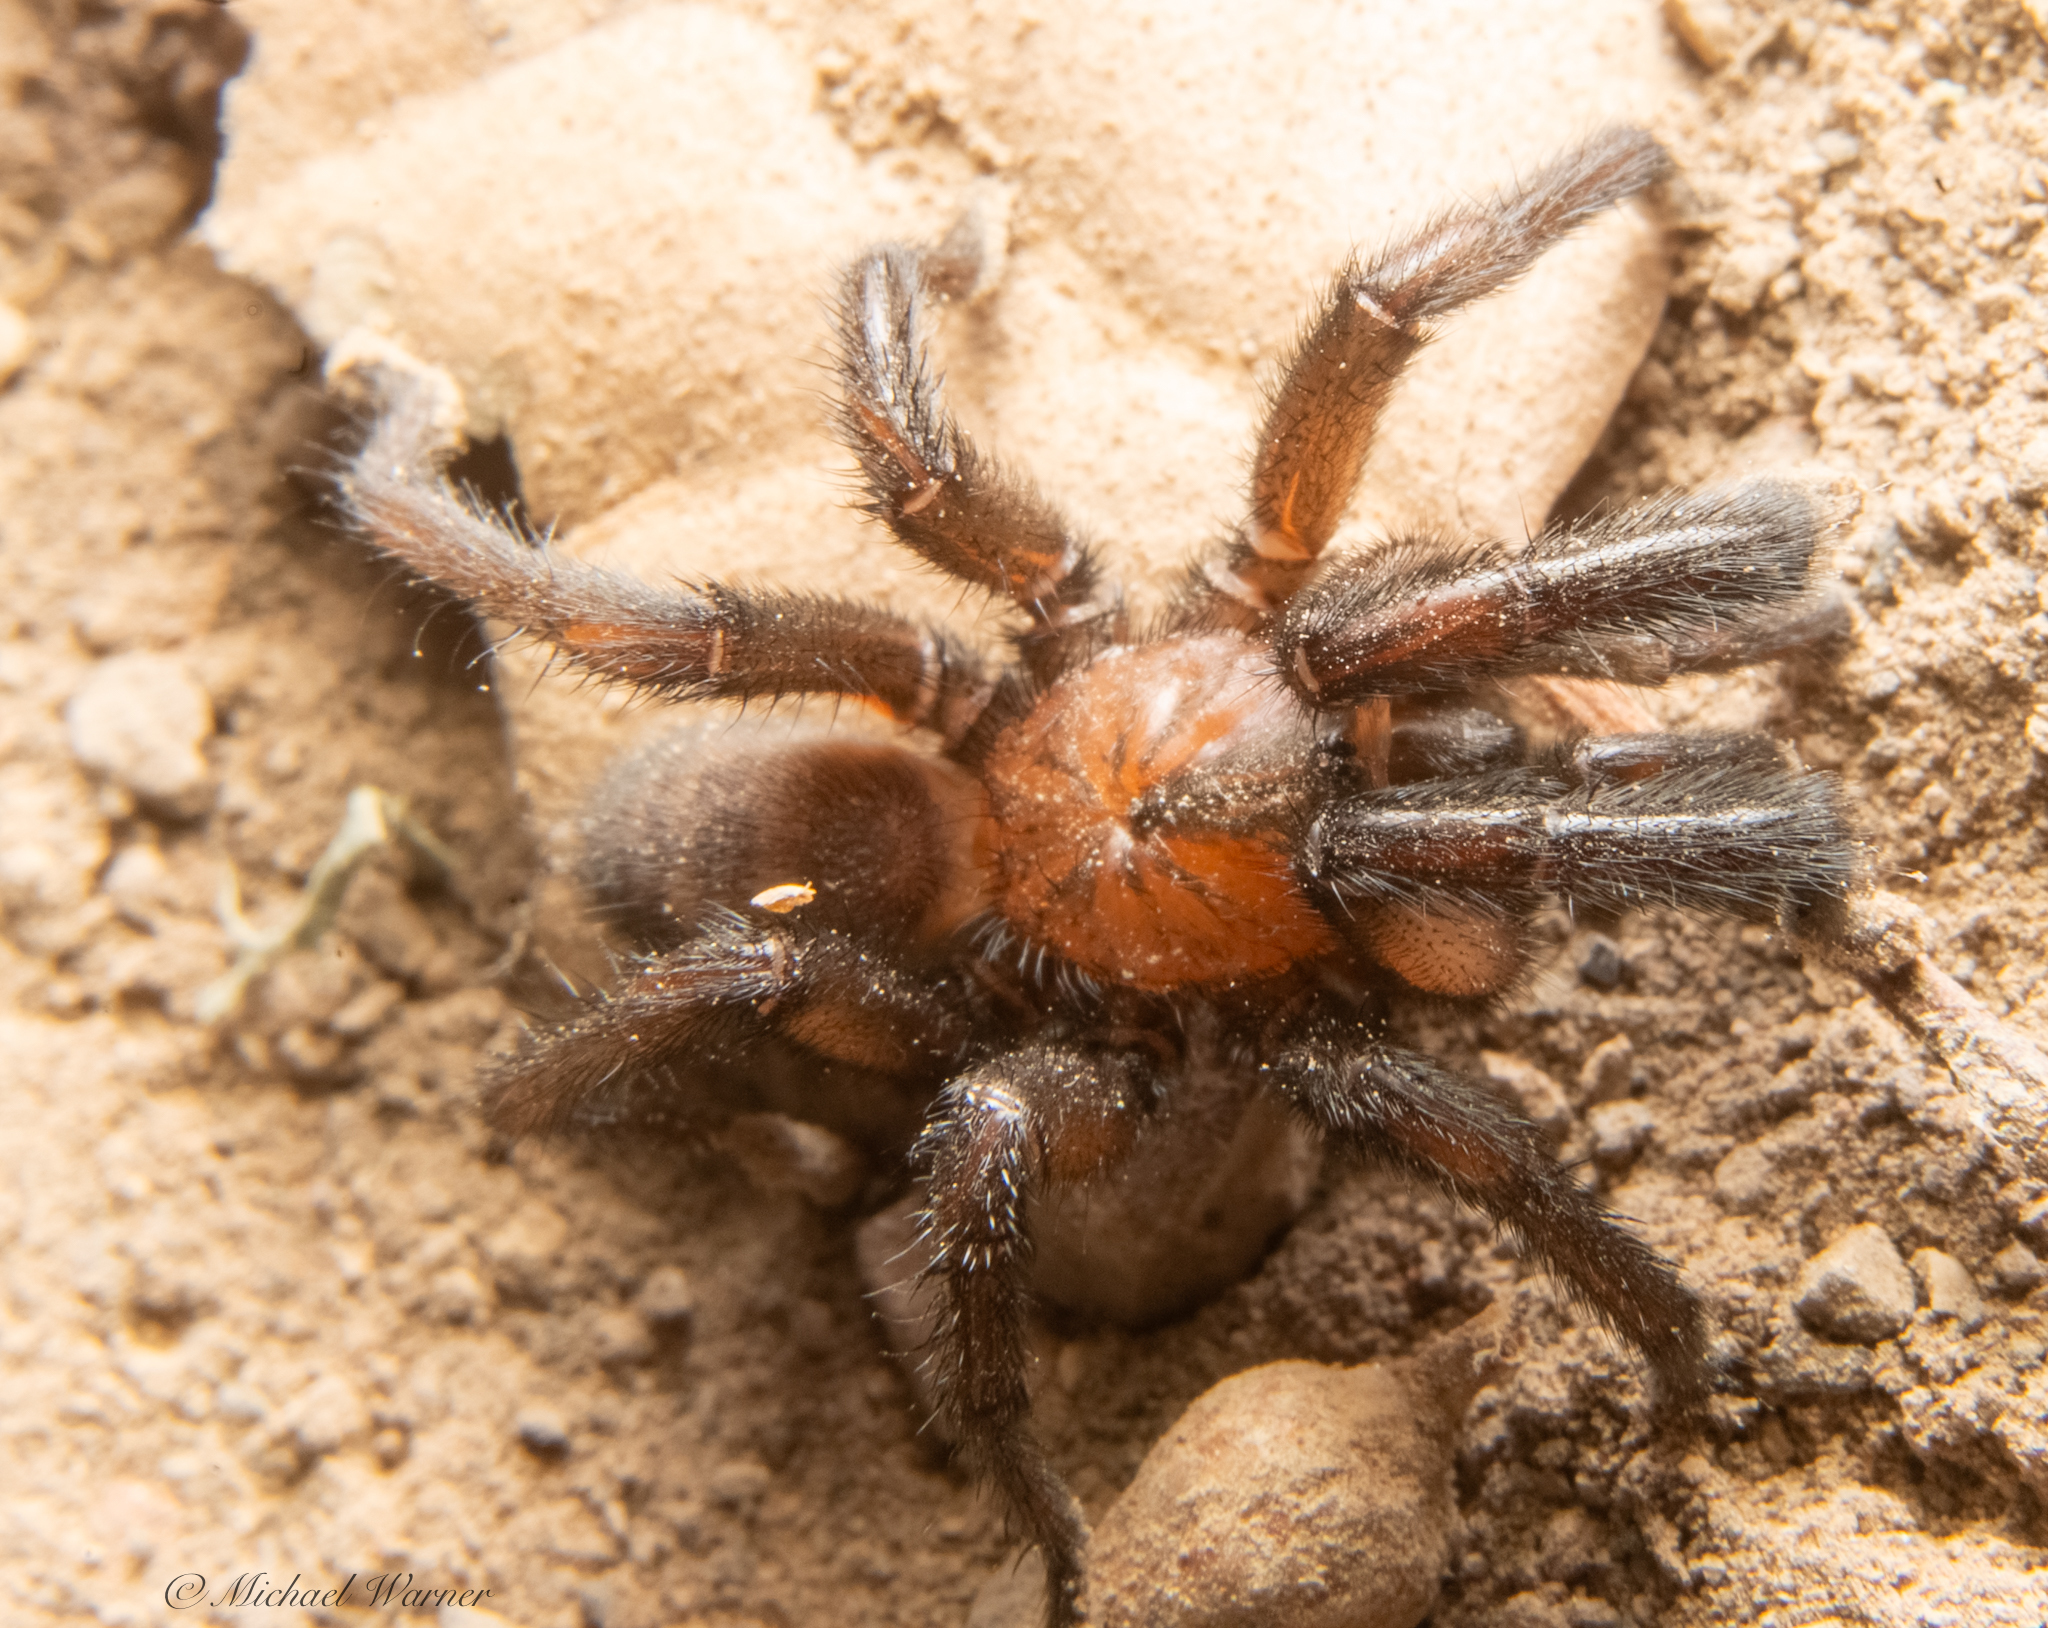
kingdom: Animalia
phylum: Arthropoda
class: Arachnida
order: Araneae
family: Euctenizidae
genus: Promyrmekiaphila
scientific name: Promyrmekiaphila clathrata
